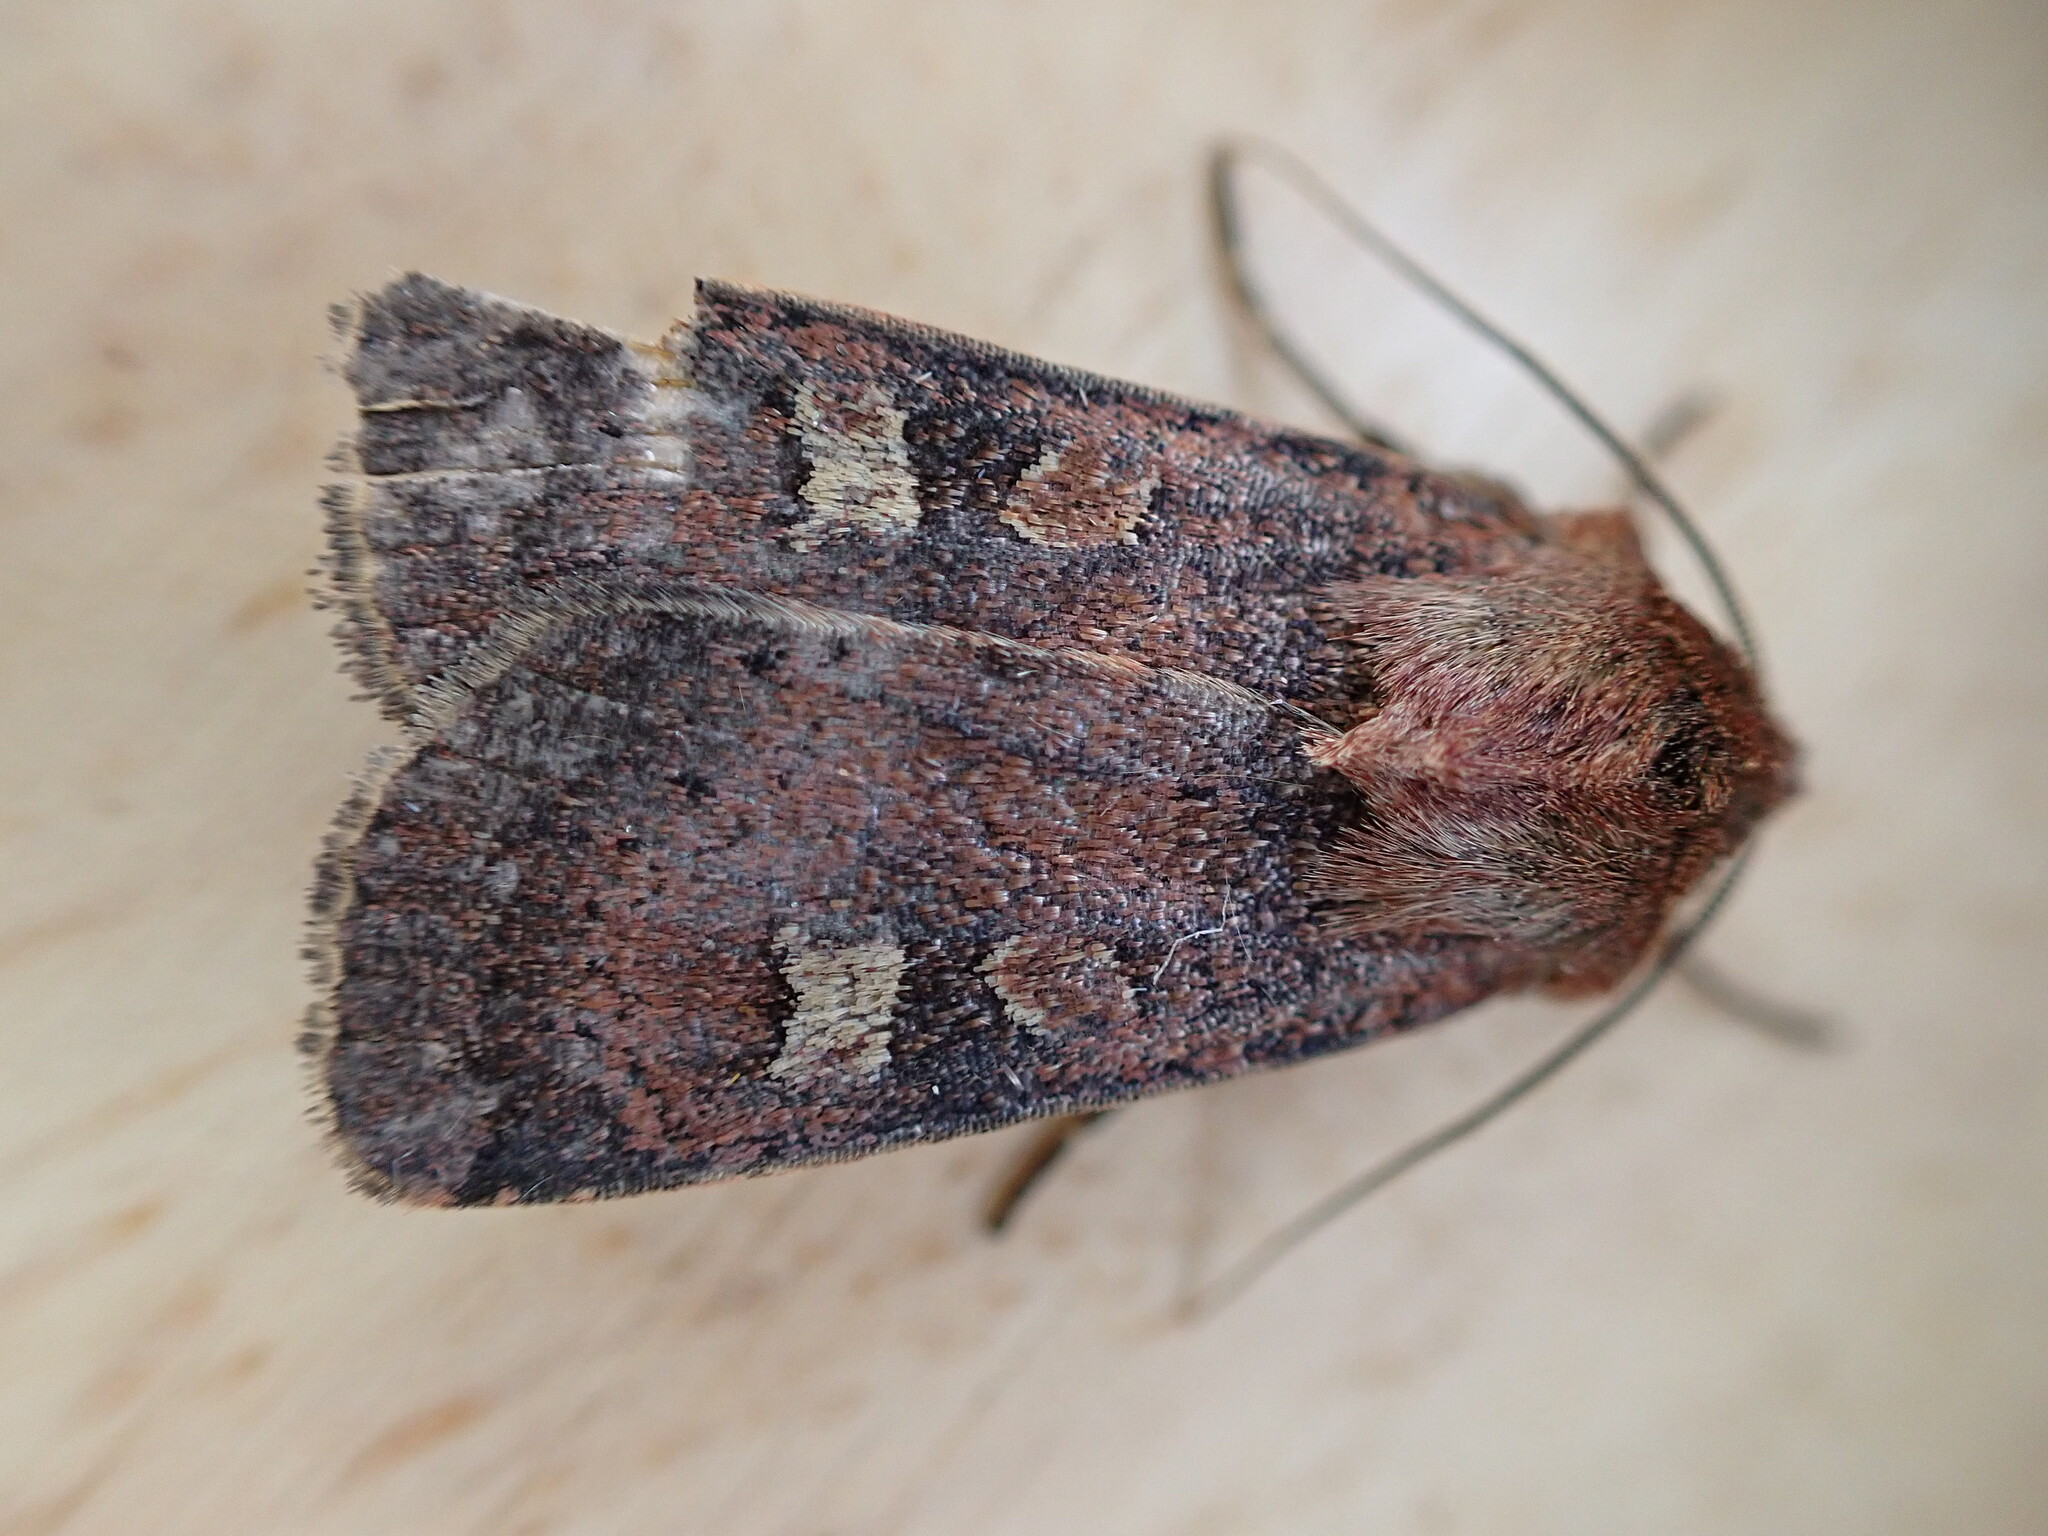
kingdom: Animalia
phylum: Arthropoda
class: Insecta
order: Lepidoptera
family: Noctuidae
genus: Xestia
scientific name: Xestia xanthographa
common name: Square-spot rustic
